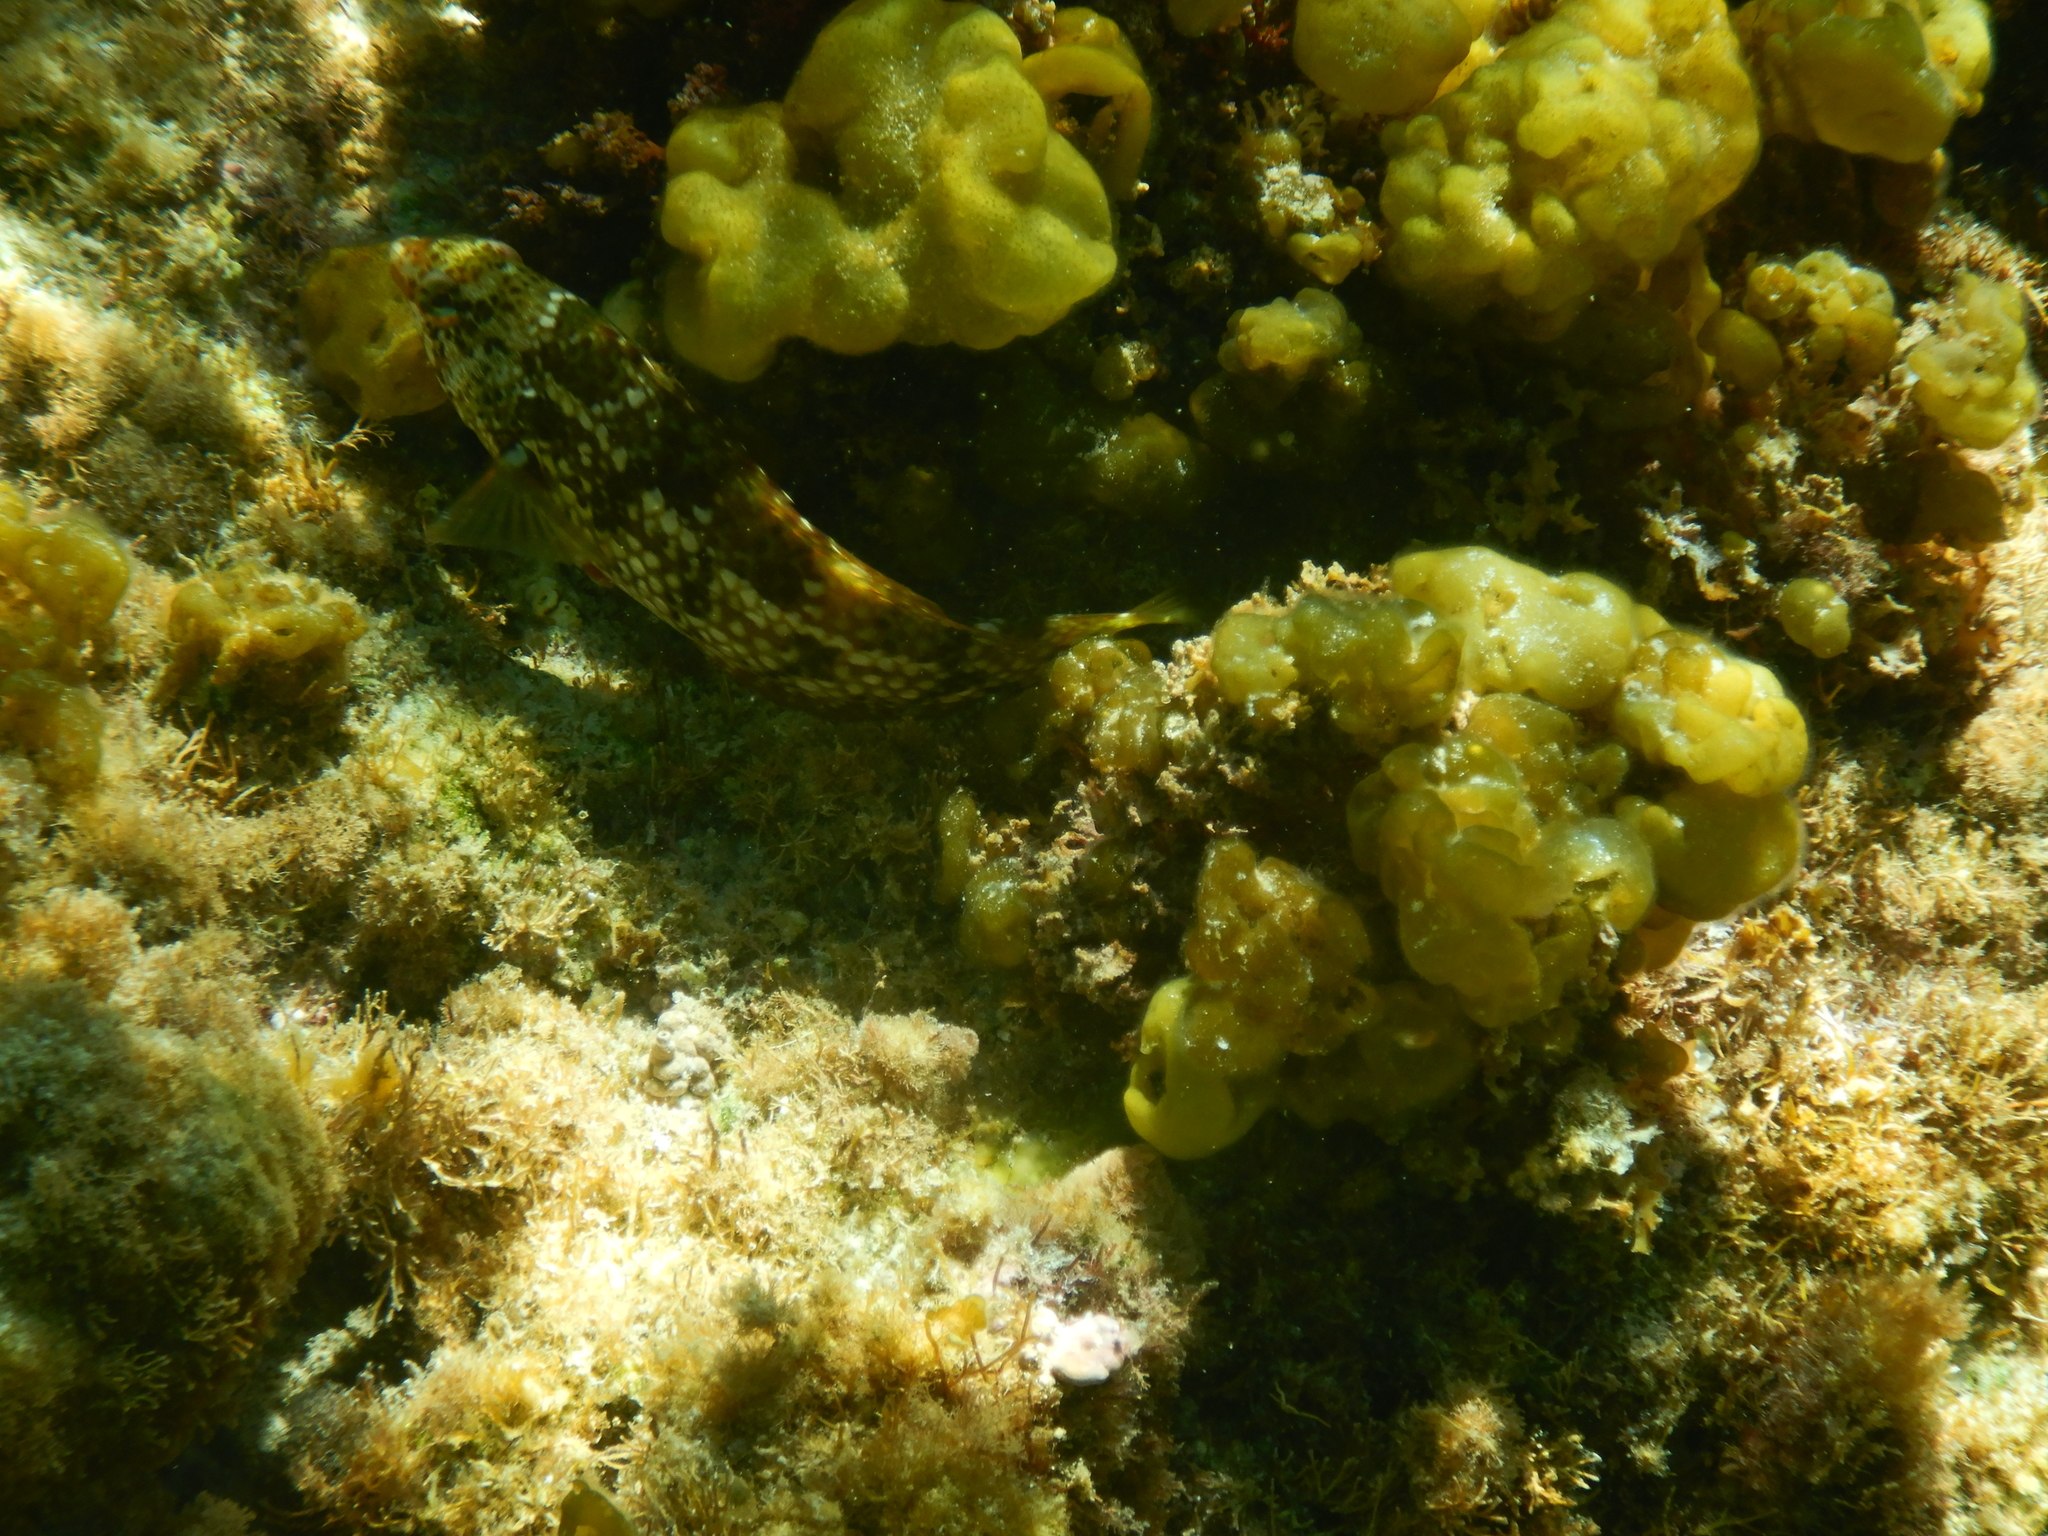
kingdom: Animalia
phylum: Chordata
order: Perciformes
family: Labridae
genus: Notolabrus
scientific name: Notolabrus parilus
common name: Brown spotted wrasse
